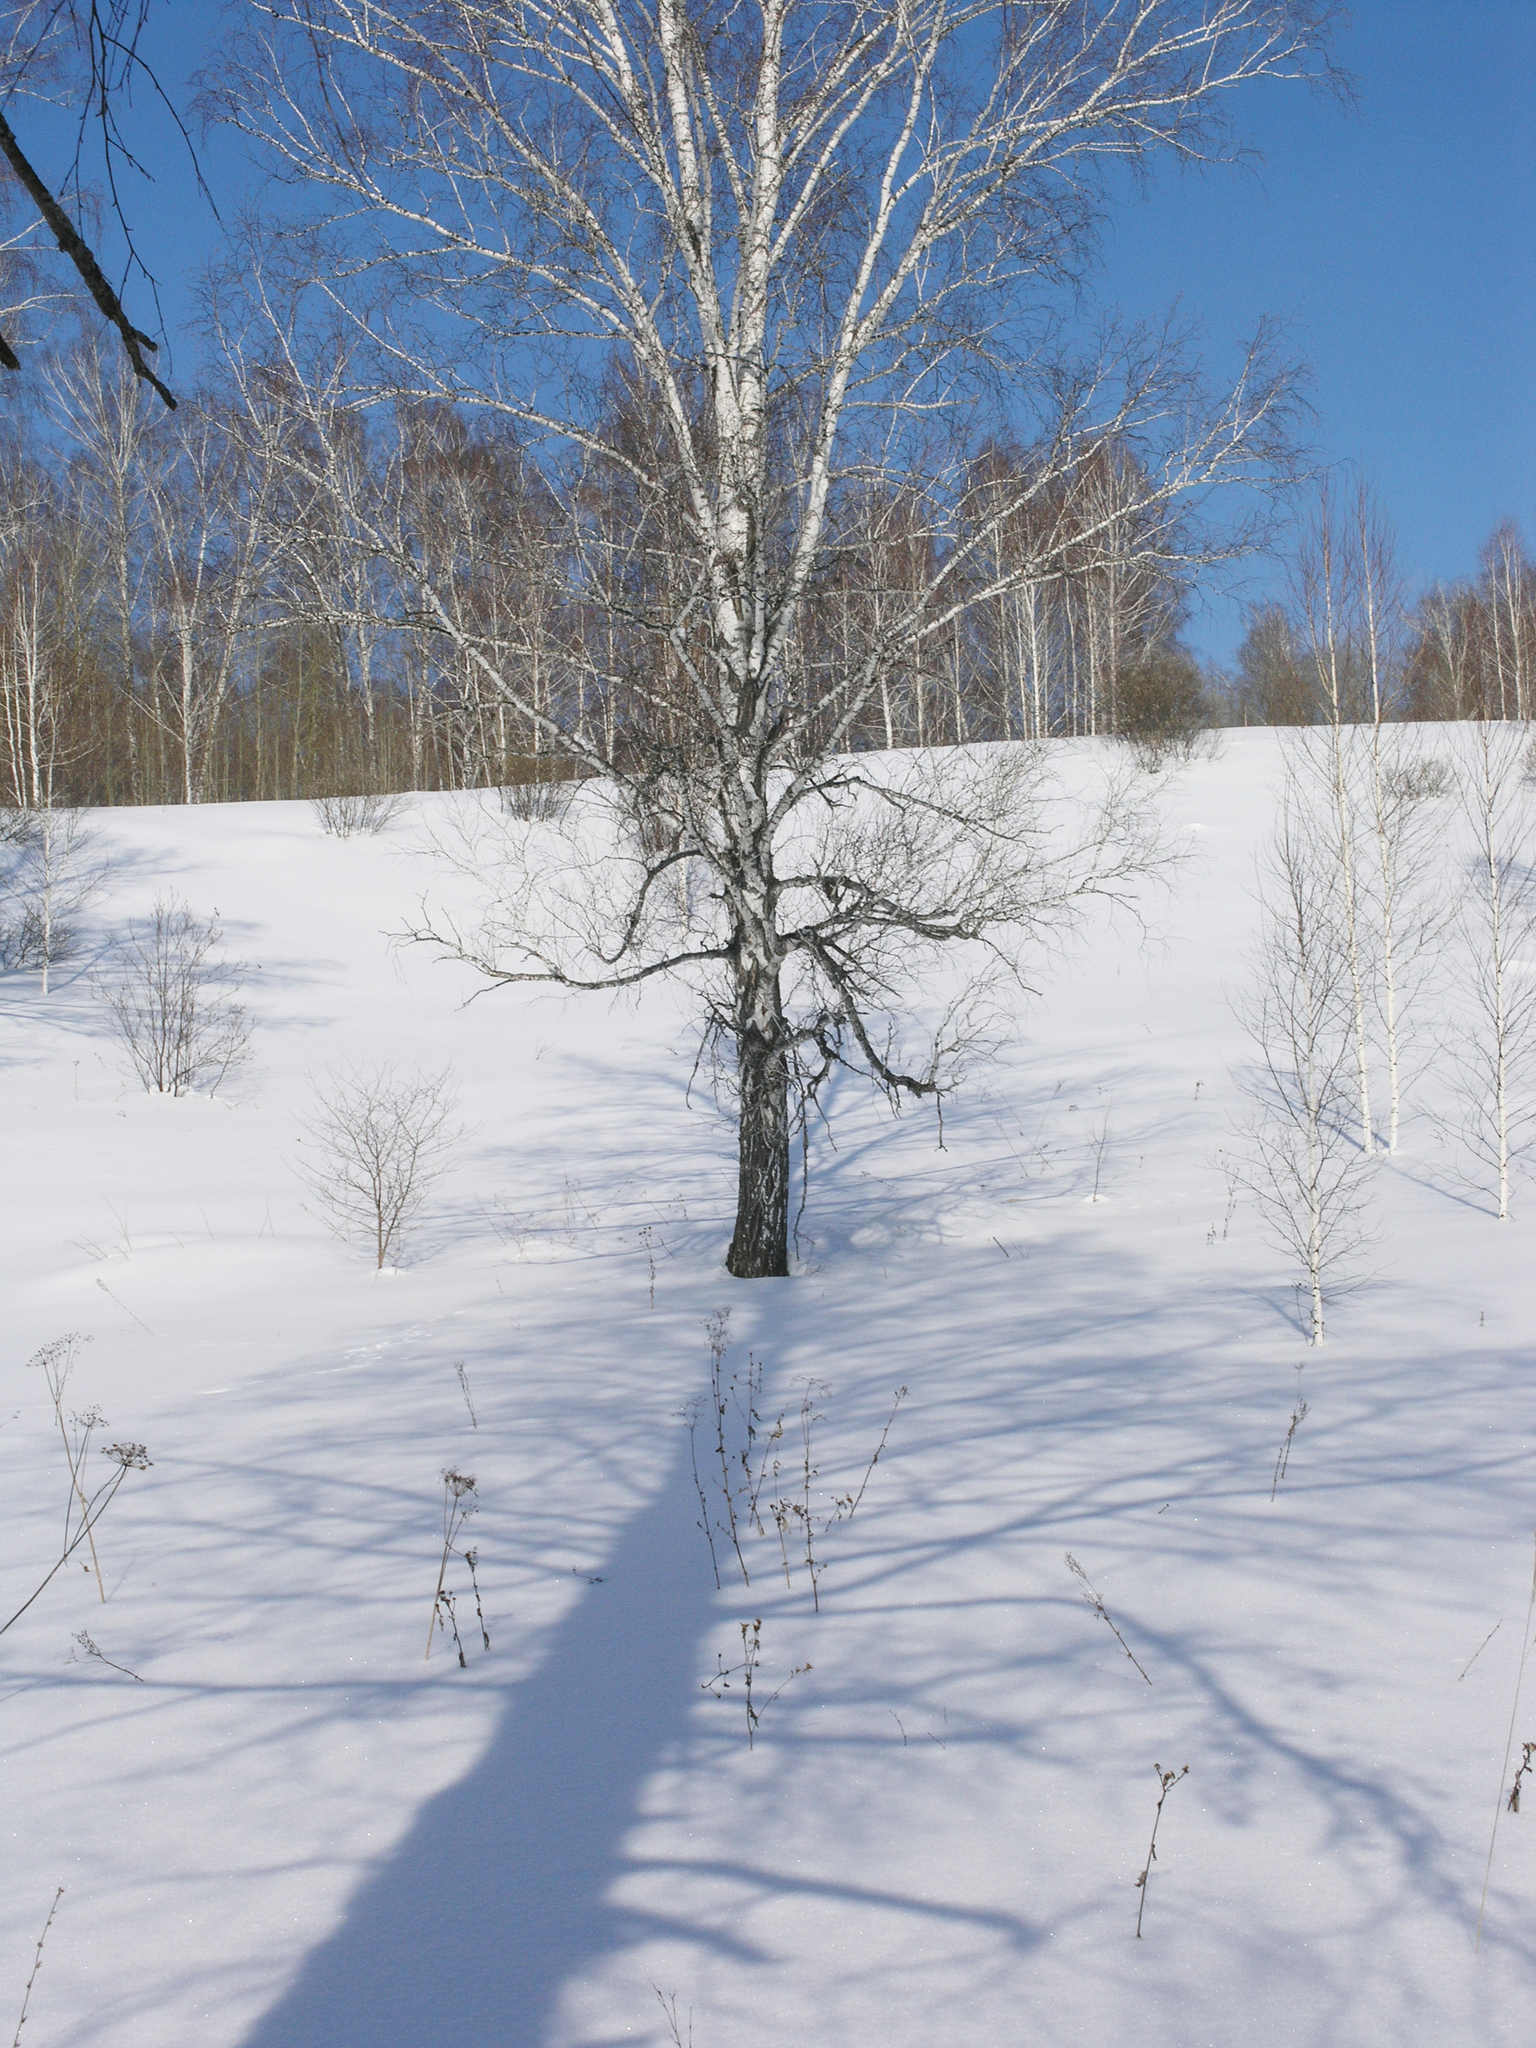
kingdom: Plantae
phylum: Tracheophyta
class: Magnoliopsida
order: Fagales
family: Betulaceae
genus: Betula
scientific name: Betula pendula
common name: Silver birch
